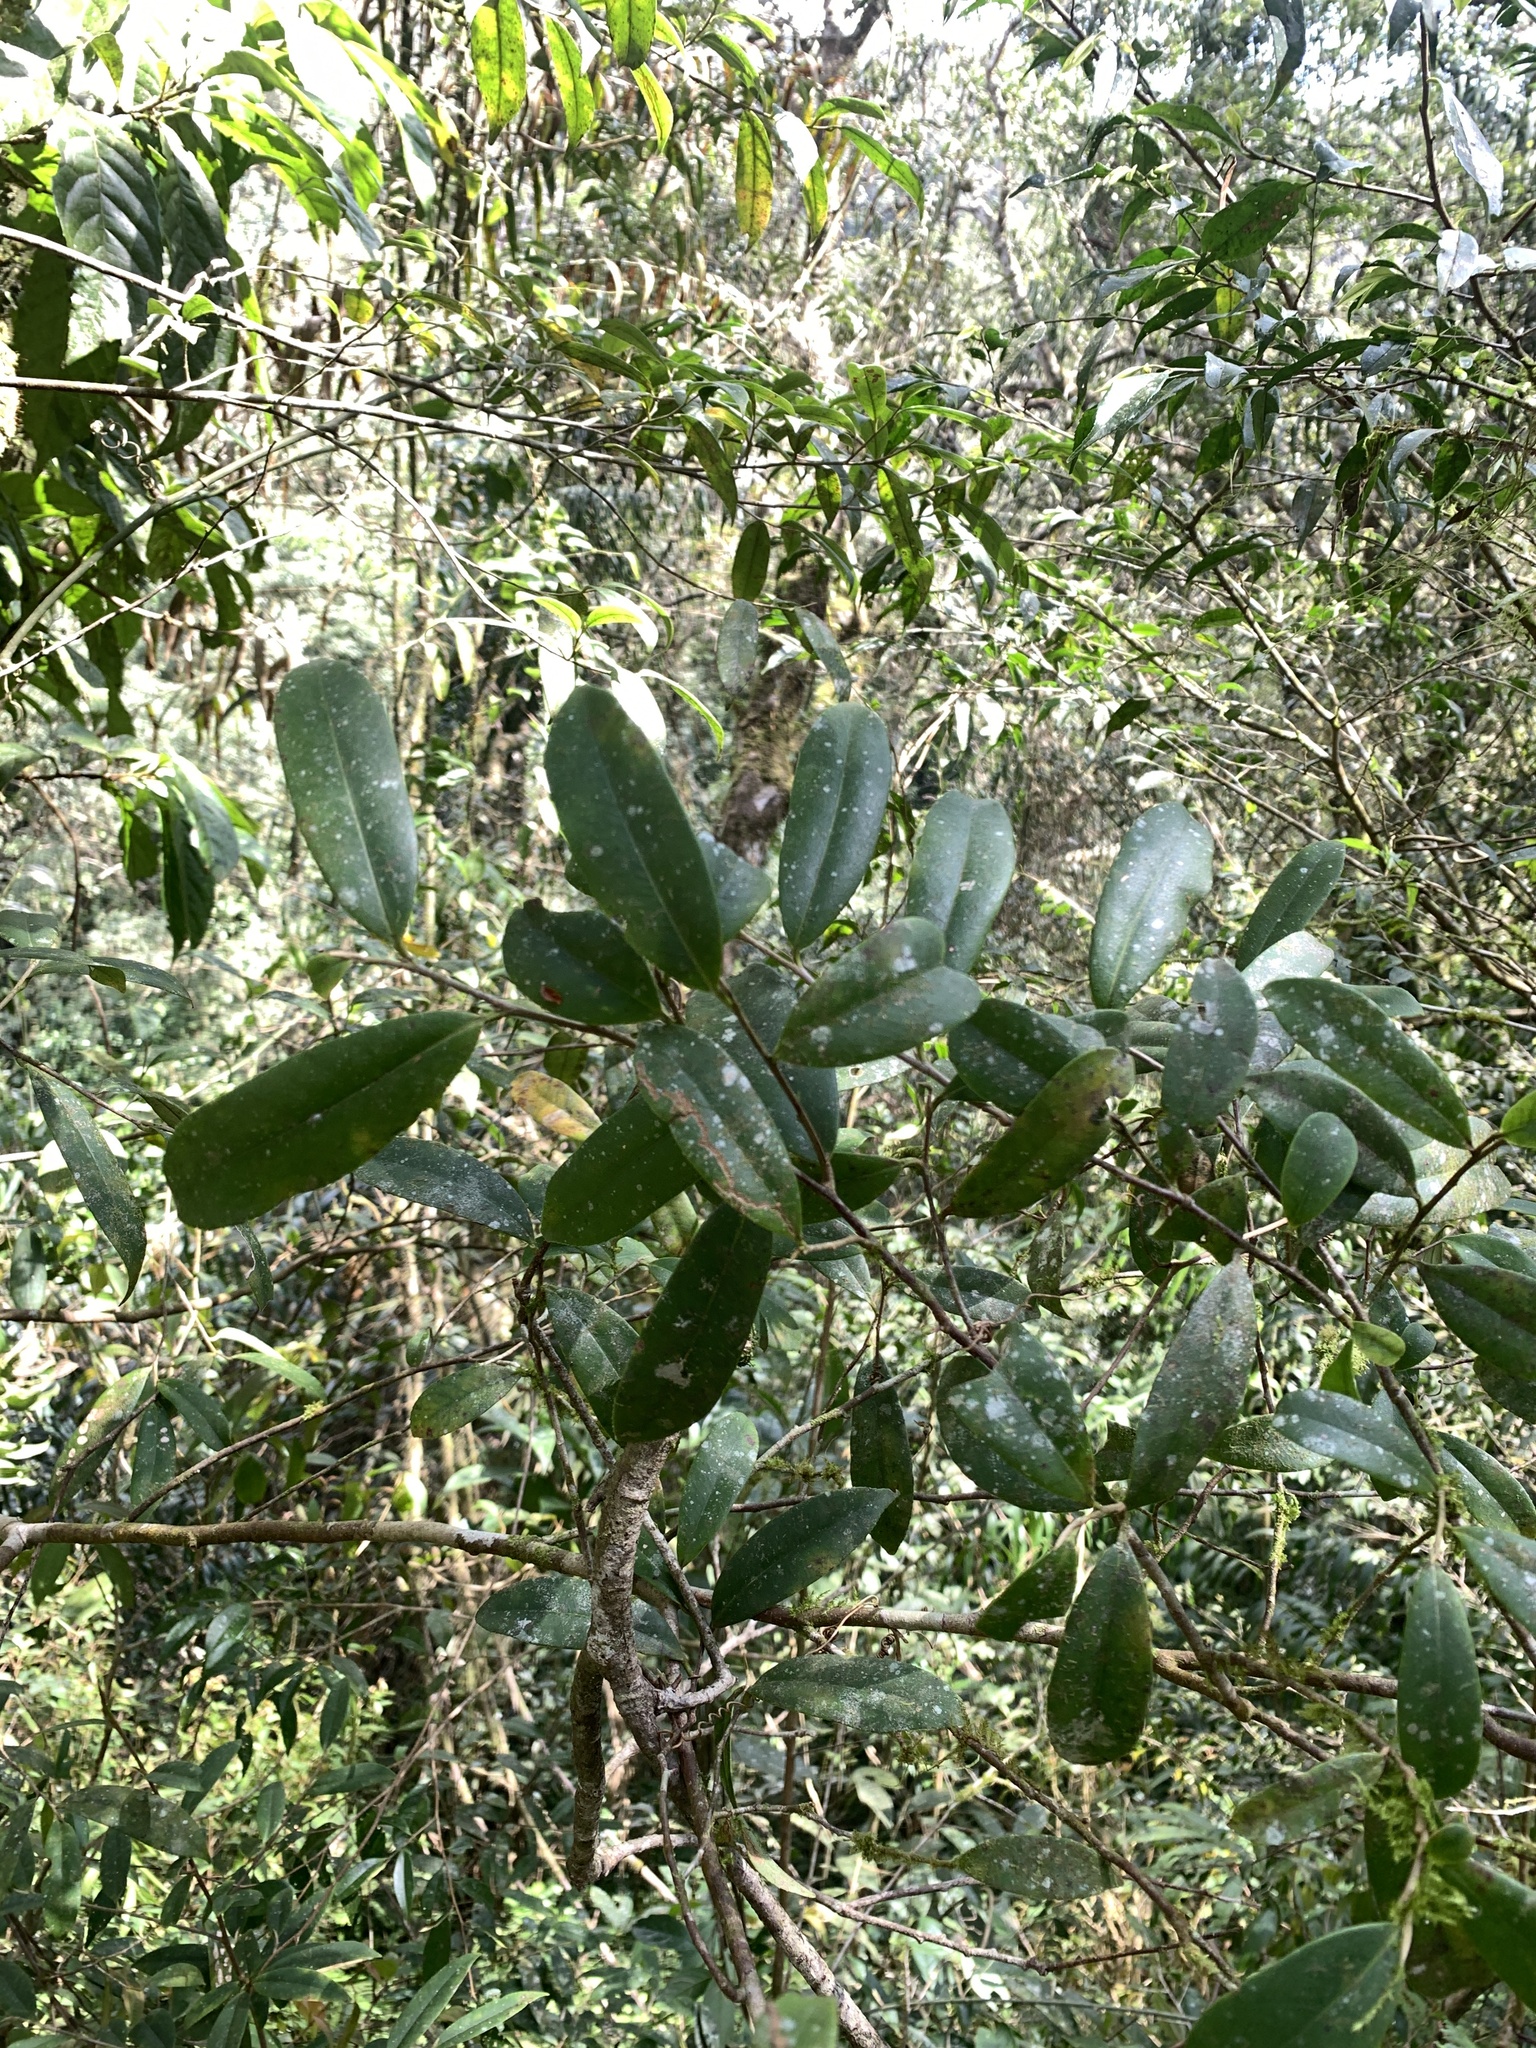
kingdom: Plantae
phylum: Tracheophyta
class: Magnoliopsida
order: Ericales
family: Pentaphylacaceae
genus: Adinandra
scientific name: Adinandra formosana
